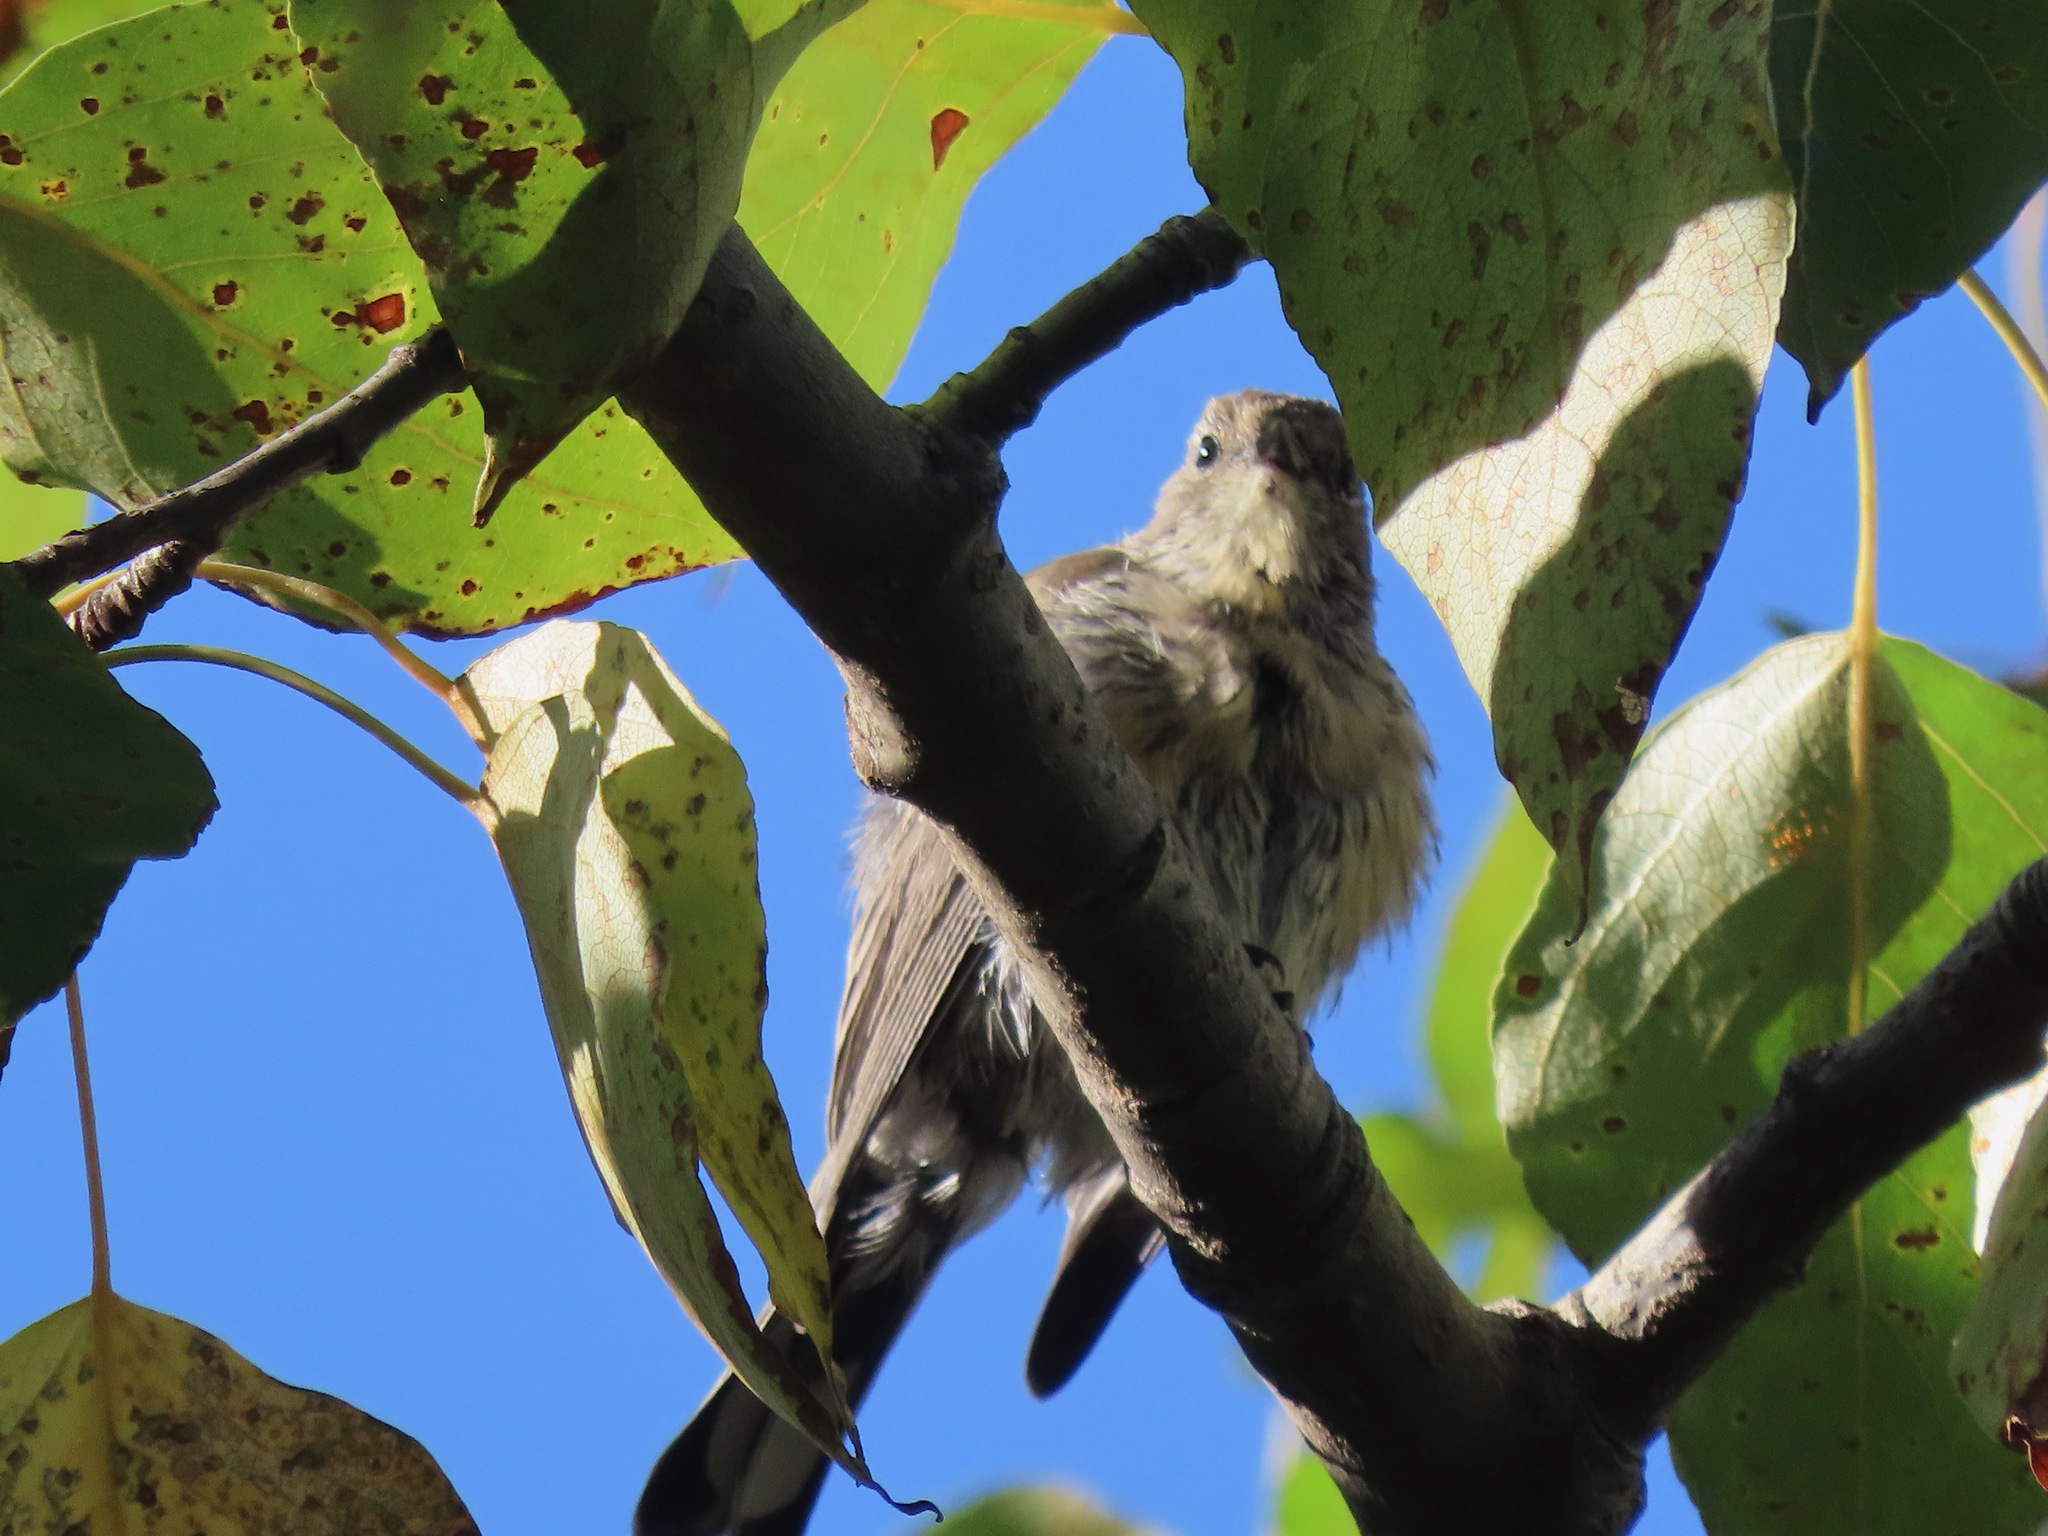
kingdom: Animalia
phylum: Chordata
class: Aves
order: Passeriformes
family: Parulidae
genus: Setophaga
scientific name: Setophaga coronata
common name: Myrtle warbler
